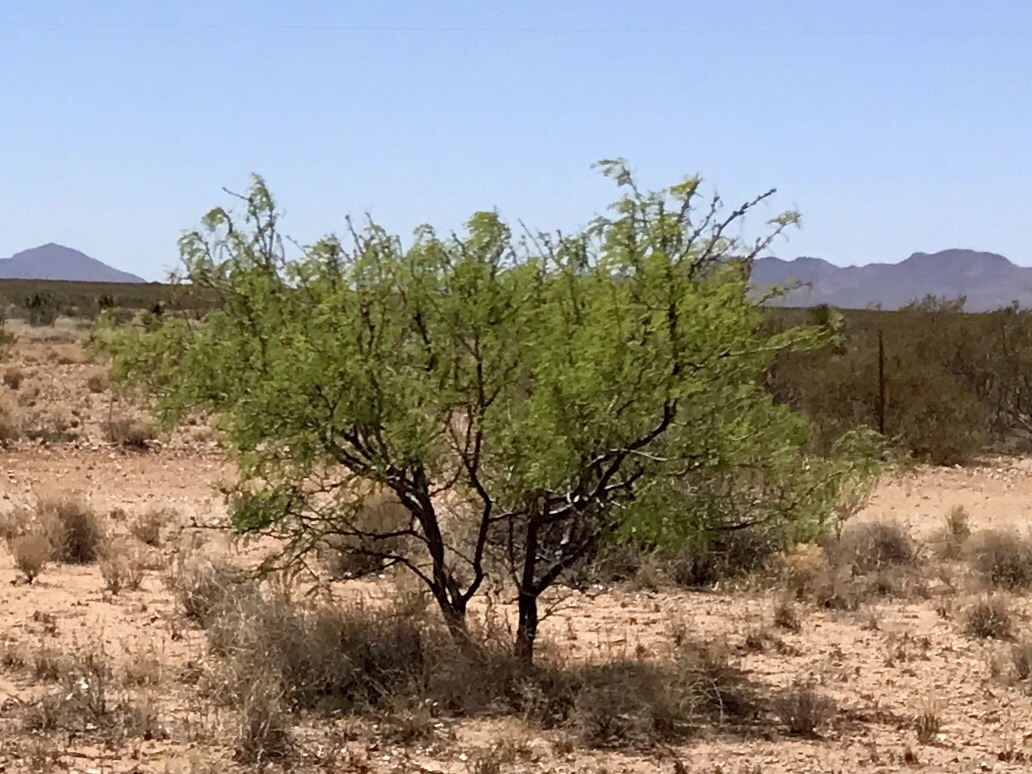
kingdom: Plantae
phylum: Tracheophyta
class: Magnoliopsida
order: Fabales
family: Fabaceae
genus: Prosopis
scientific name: Prosopis glandulosa
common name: Honey mesquite
